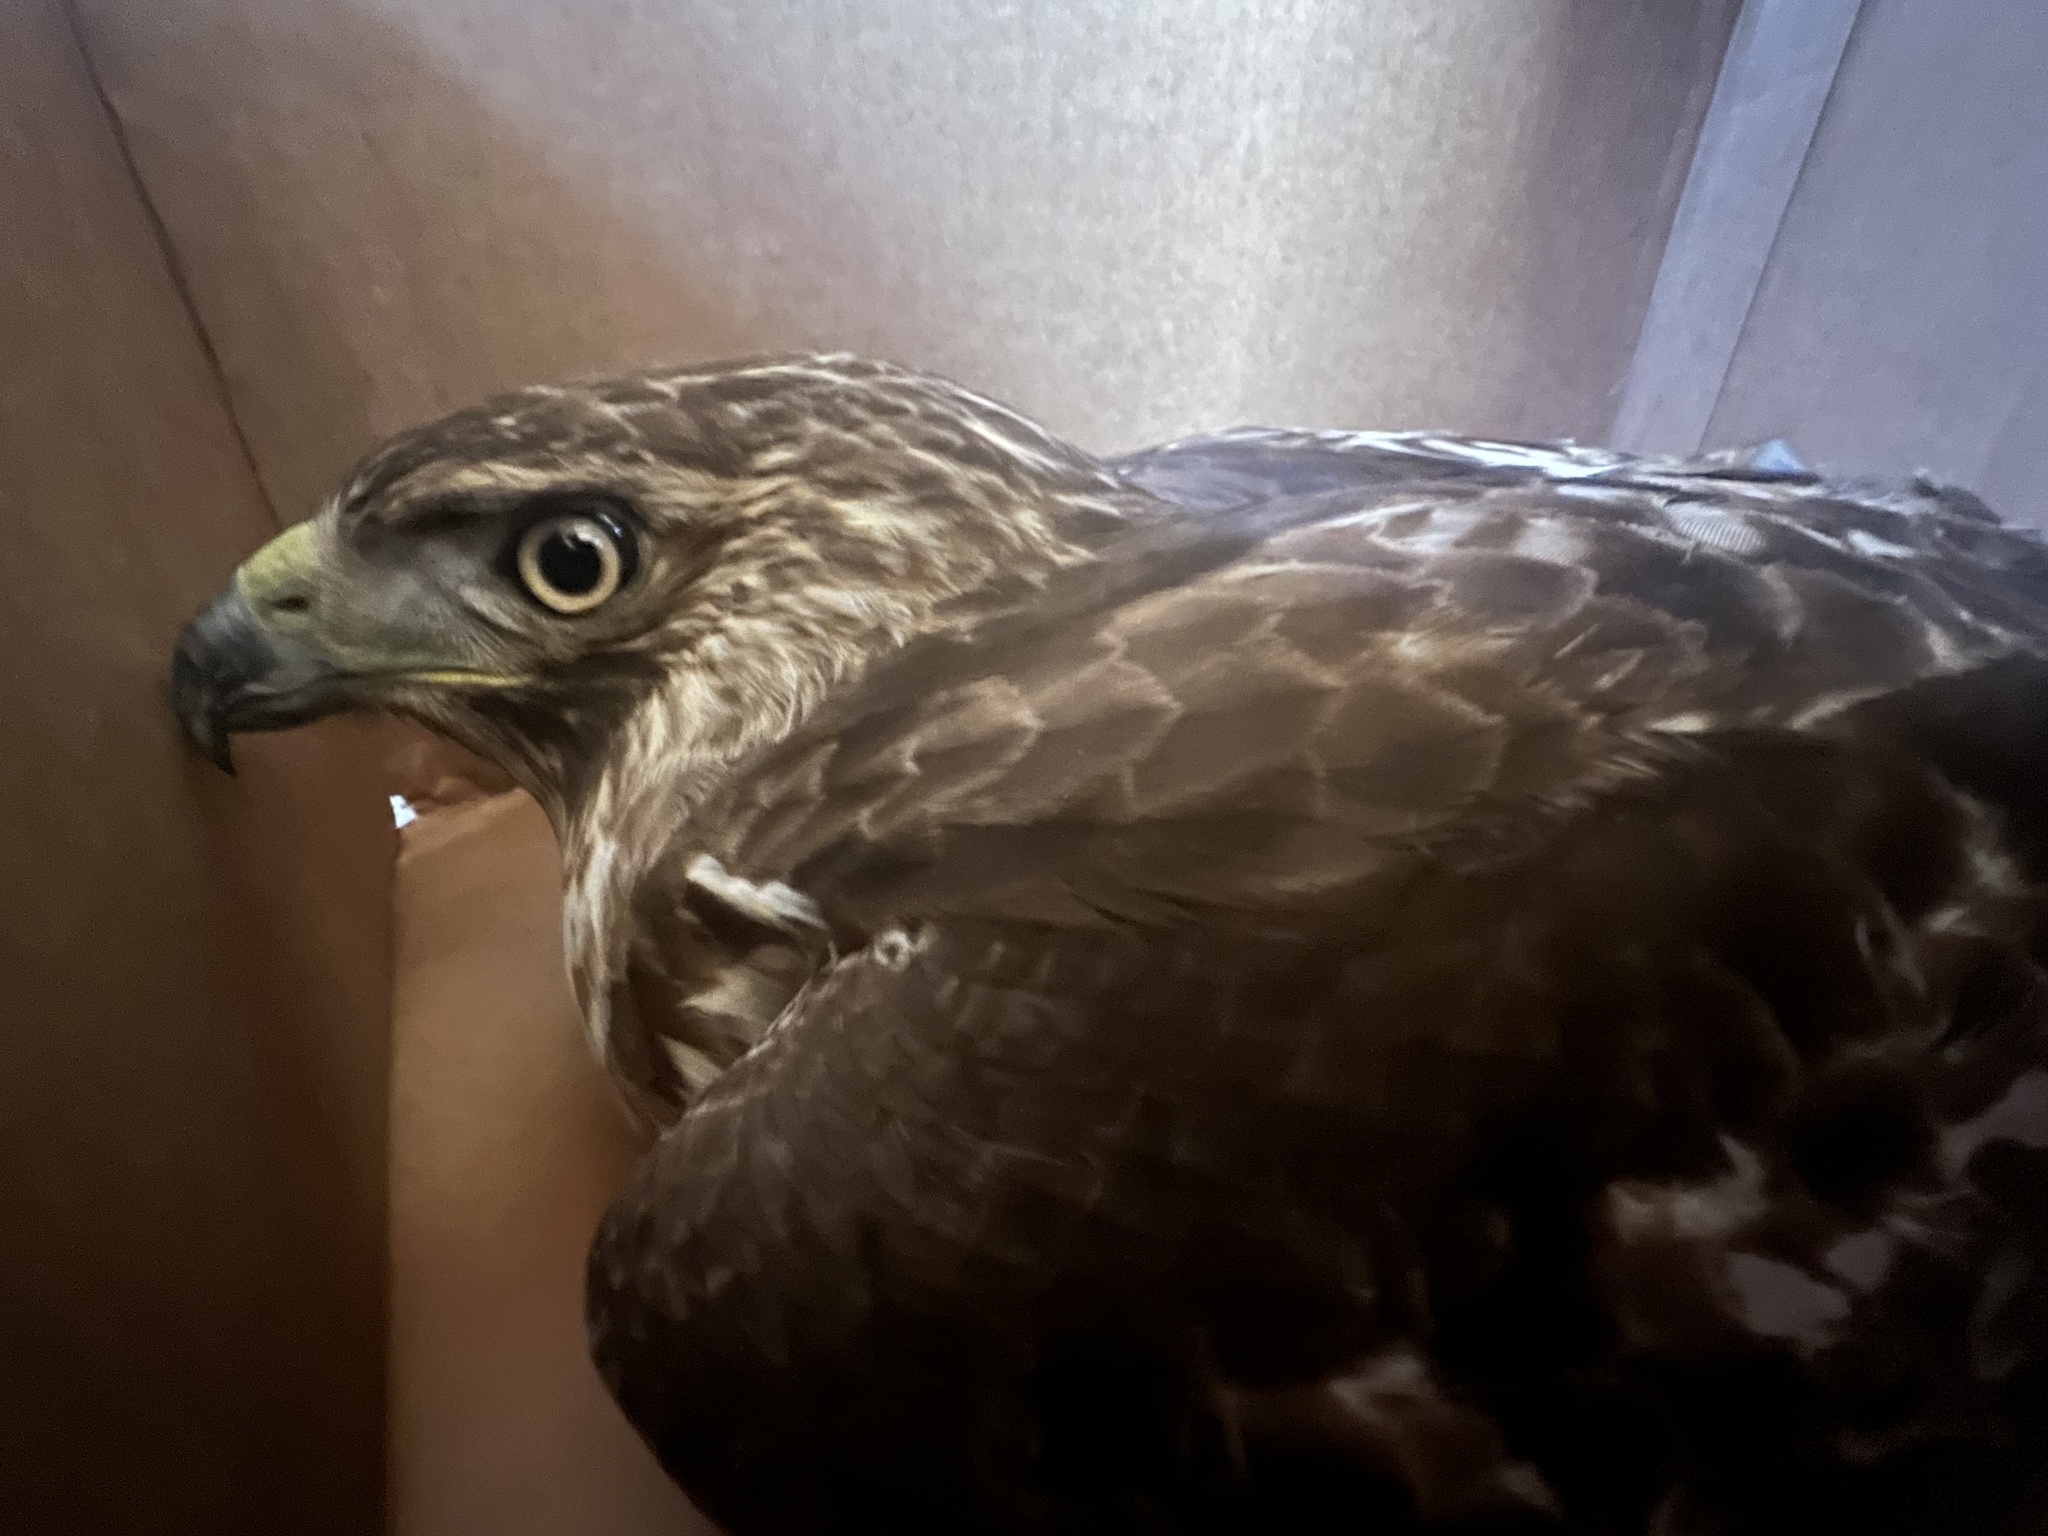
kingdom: Animalia
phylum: Chordata
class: Aves
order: Accipitriformes
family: Accipitridae
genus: Buteo
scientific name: Buteo jamaicensis
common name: Red-tailed hawk
